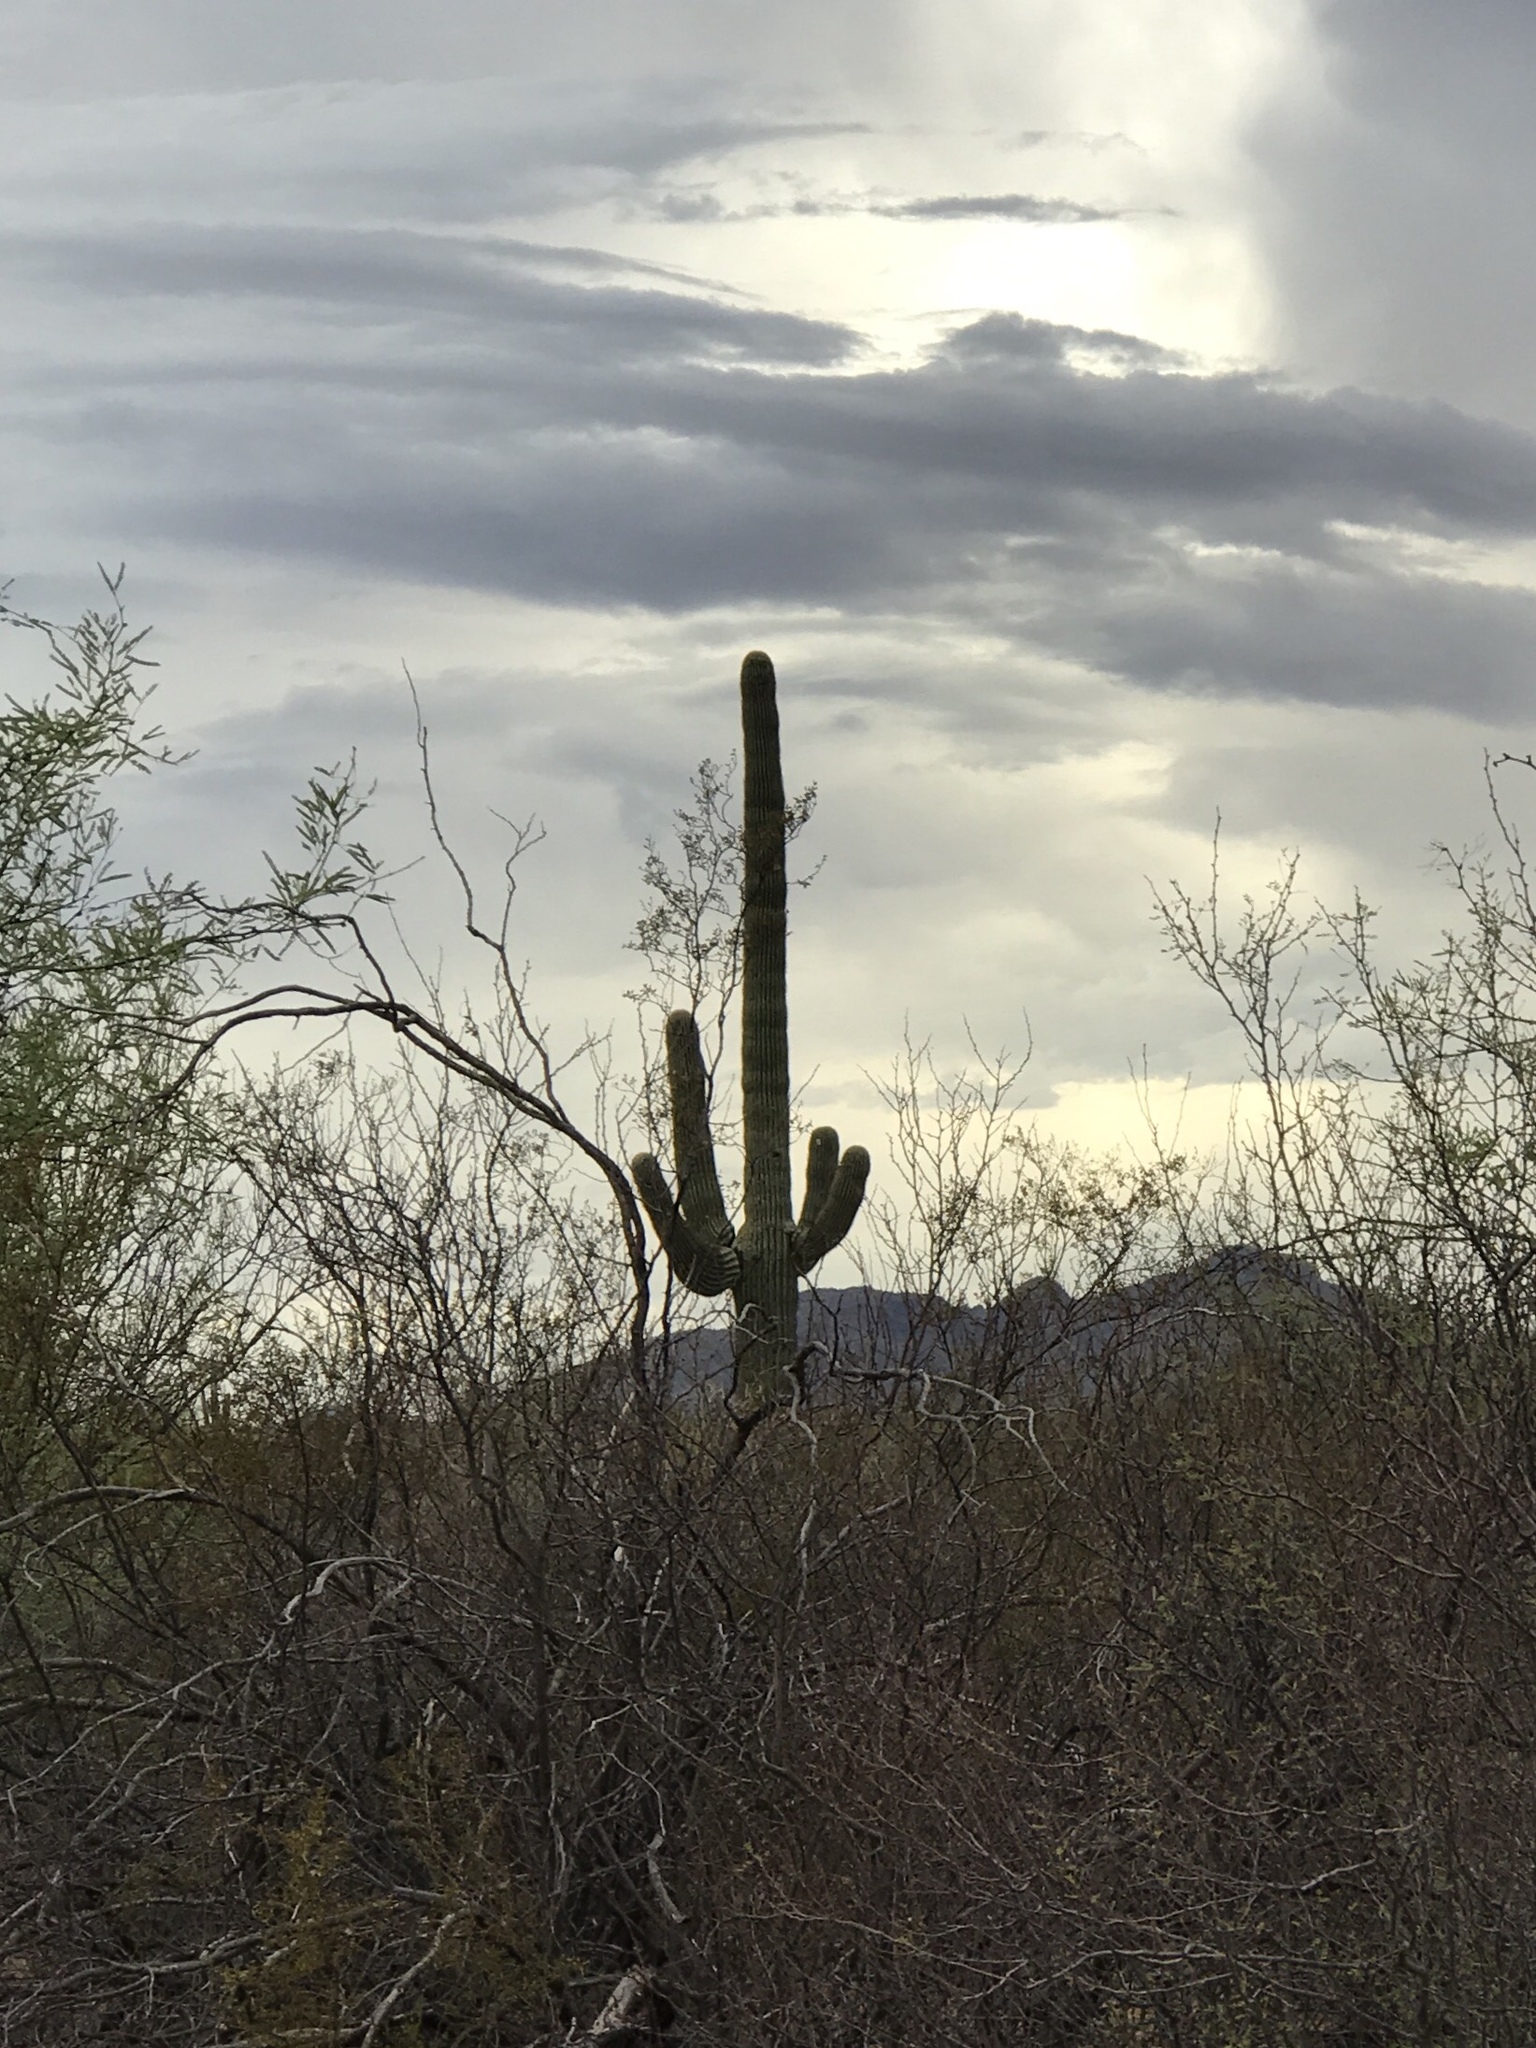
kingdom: Plantae
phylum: Tracheophyta
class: Magnoliopsida
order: Caryophyllales
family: Cactaceae
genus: Carnegiea
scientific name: Carnegiea gigantea
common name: Saguaro
